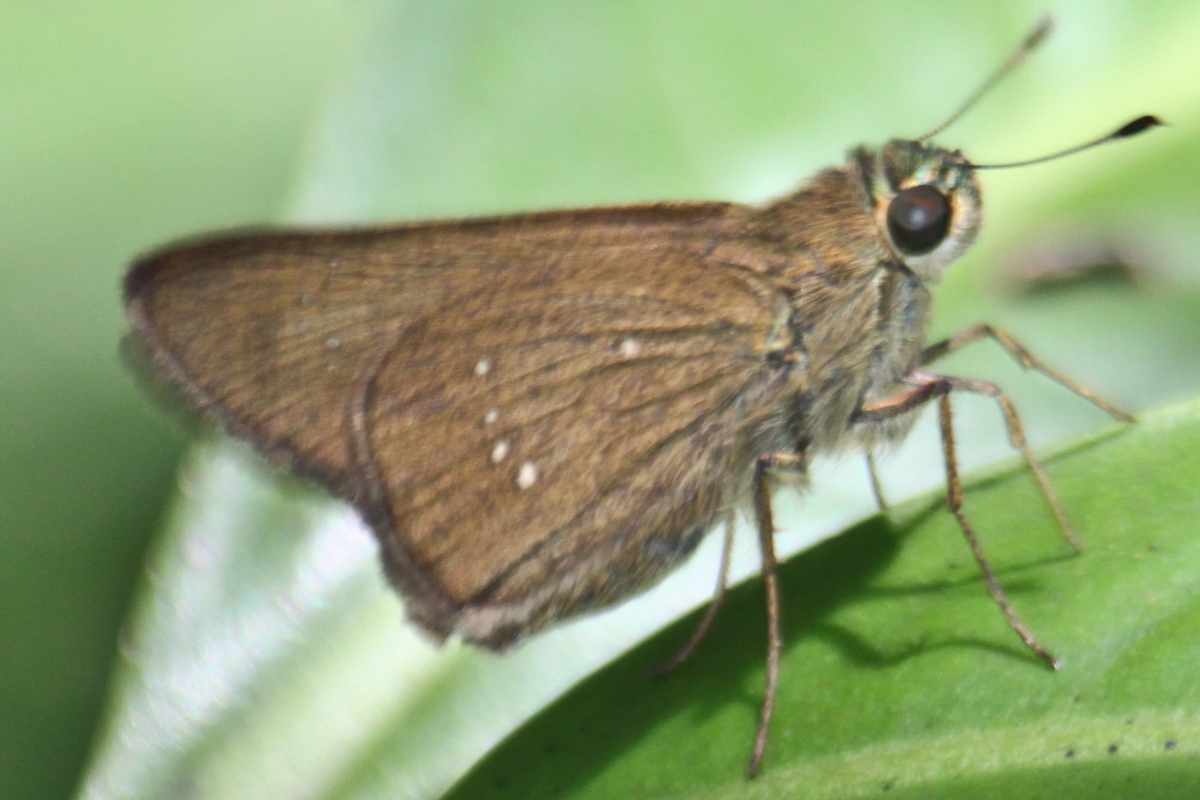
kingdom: Animalia
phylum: Arthropoda
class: Insecta
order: Lepidoptera
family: Hesperiidae
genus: Pelopidas
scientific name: Pelopidas mathias
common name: Black-branded swift
